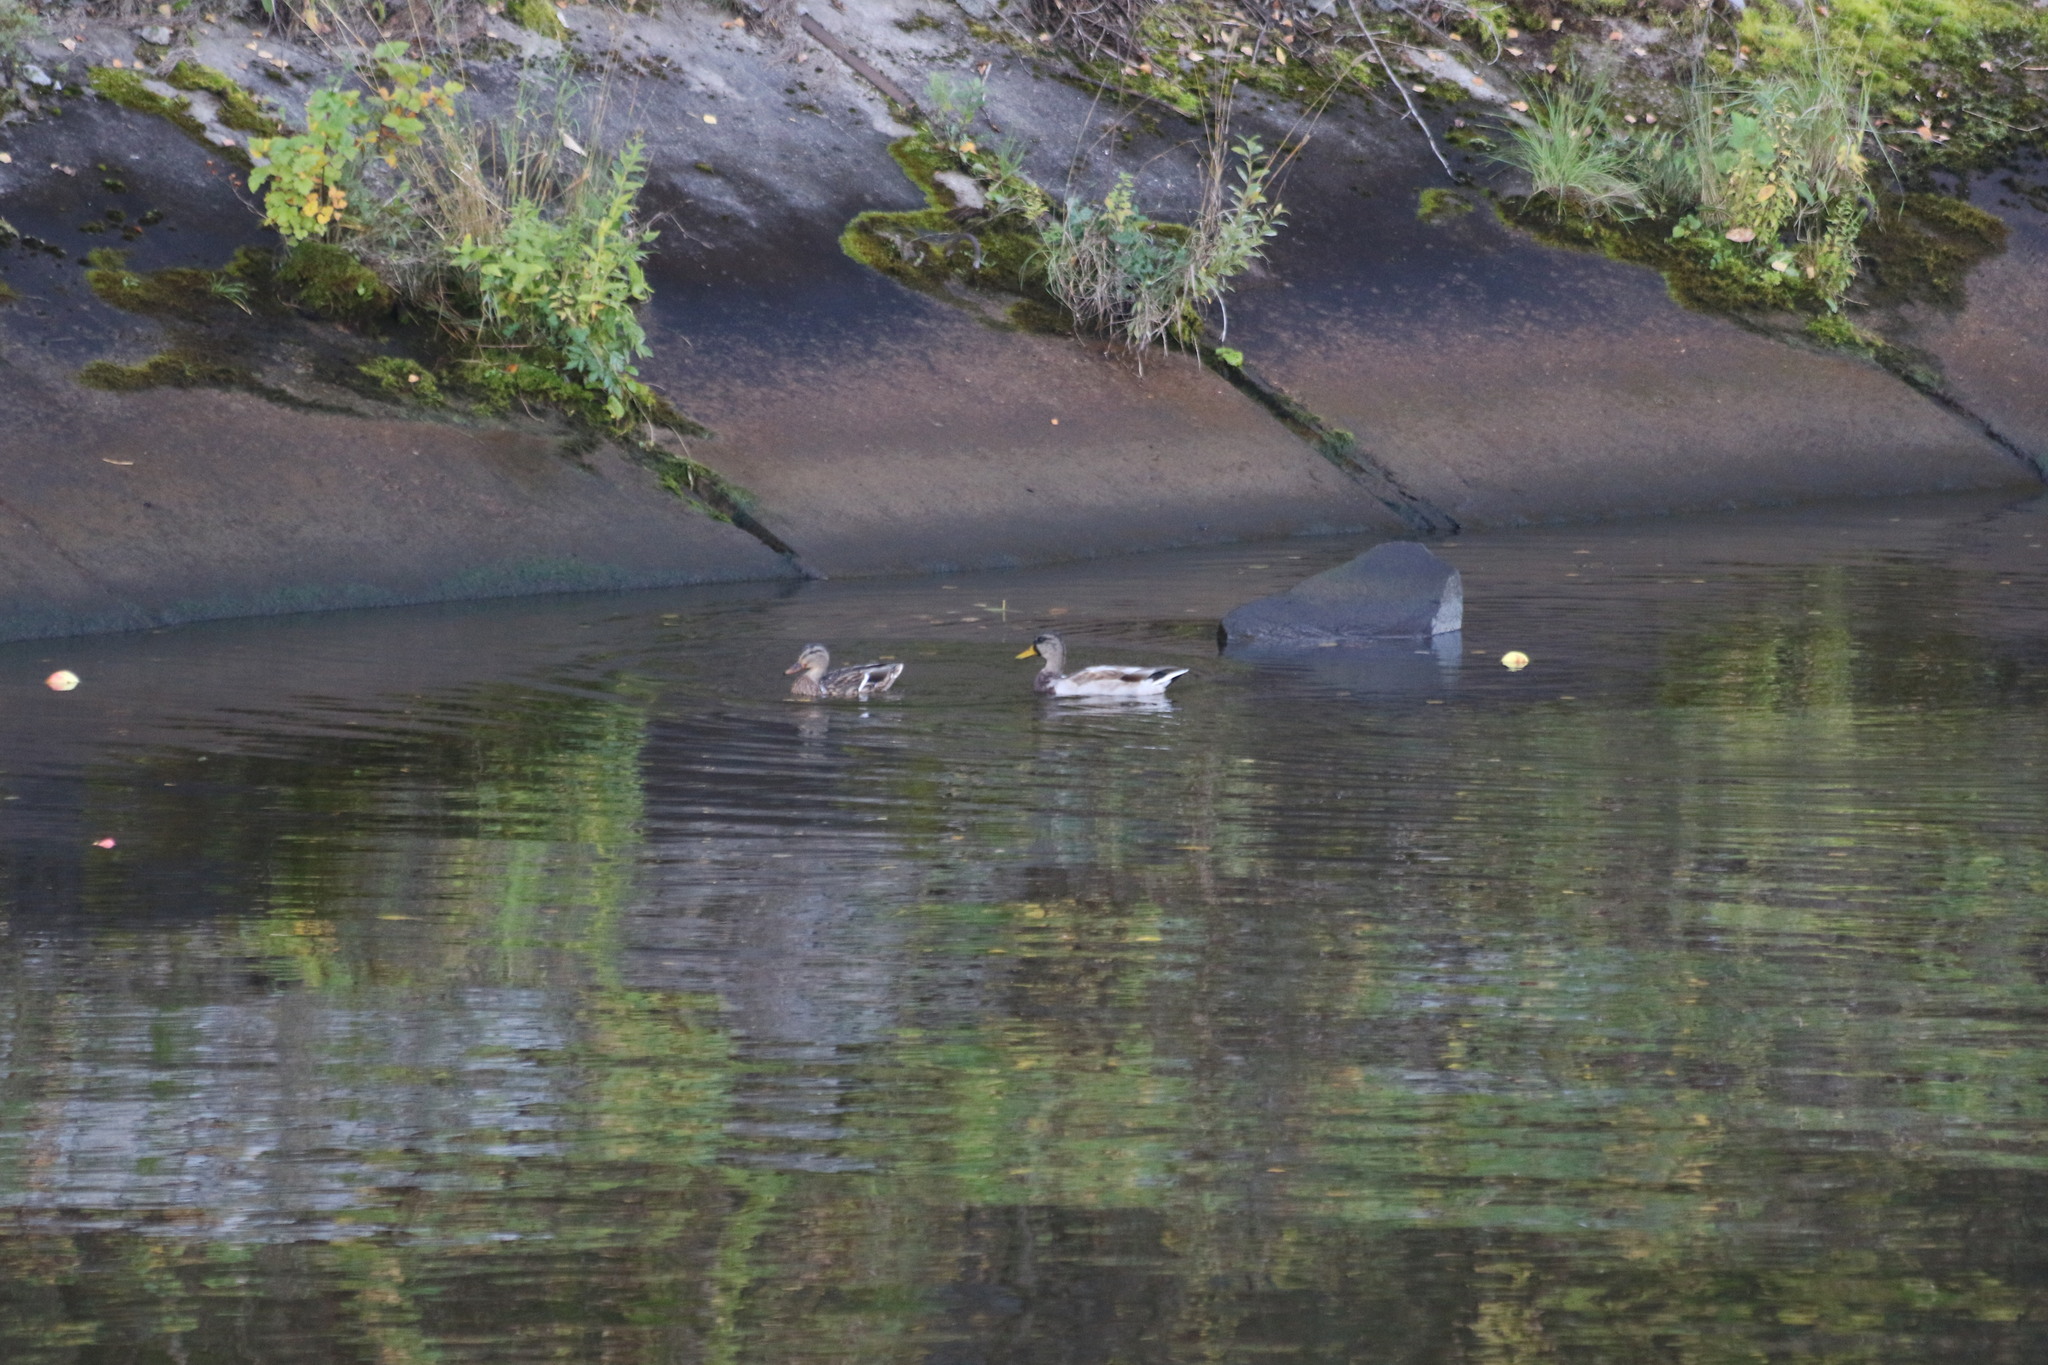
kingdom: Animalia
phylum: Chordata
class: Aves
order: Anseriformes
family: Anatidae
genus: Anas
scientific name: Anas platyrhynchos
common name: Mallard
